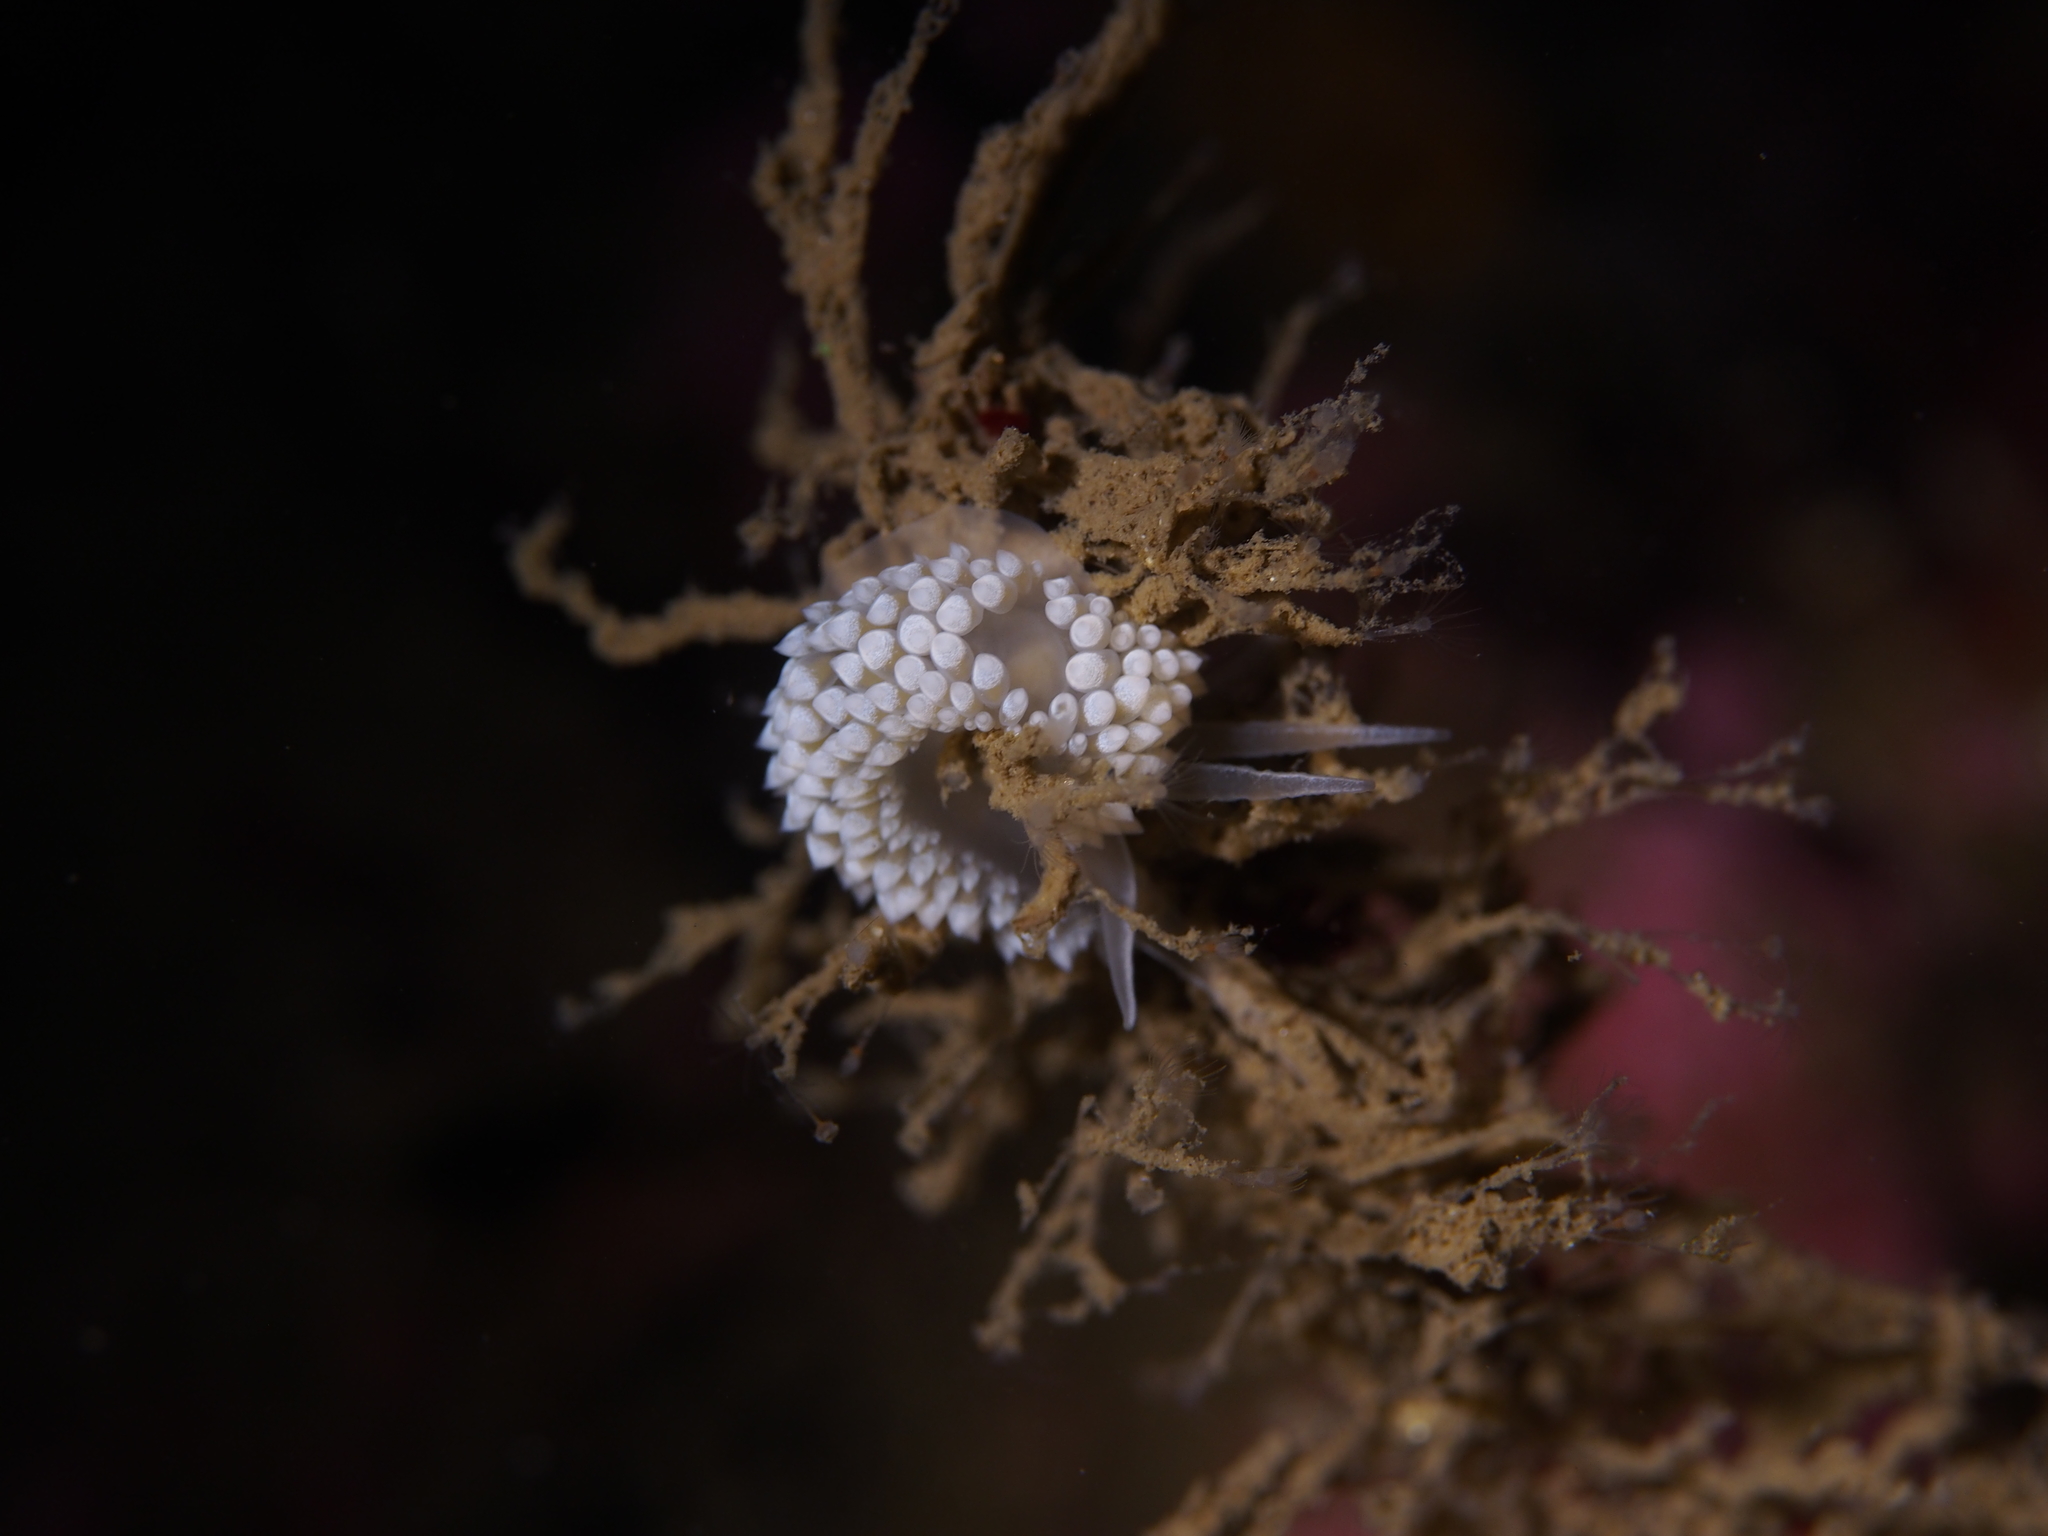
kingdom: Animalia
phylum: Mollusca
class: Gastropoda
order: Nudibranchia
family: Coryphellidae
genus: Coryphella
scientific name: Coryphella verrucosa
